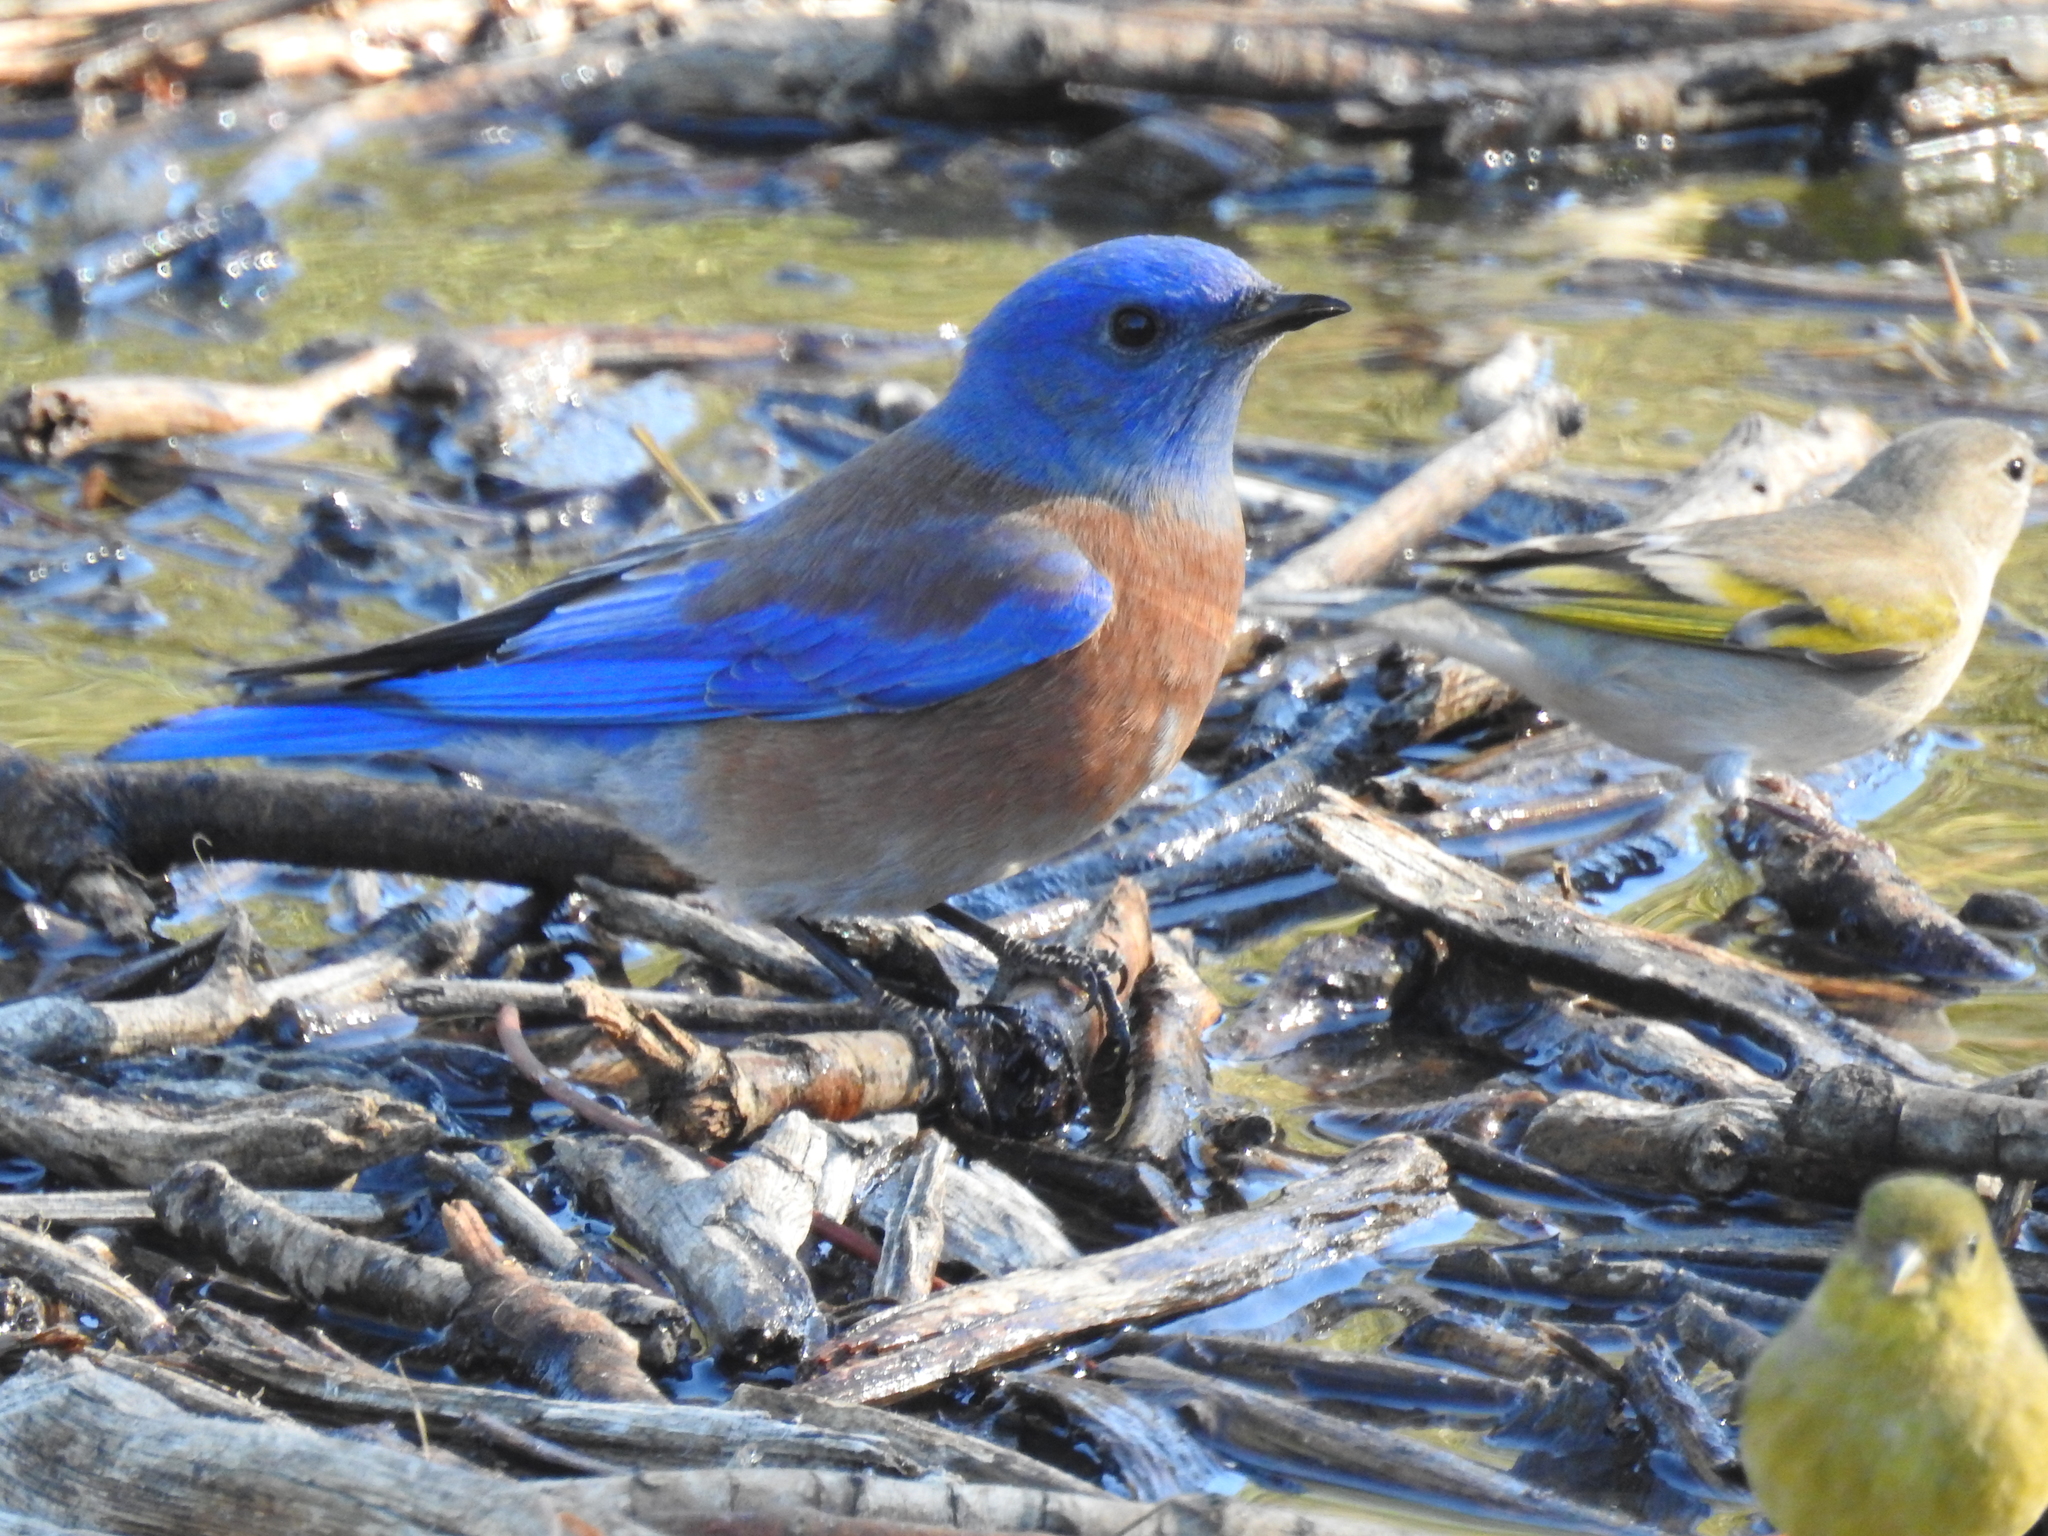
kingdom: Animalia
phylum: Chordata
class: Aves
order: Passeriformes
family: Turdidae
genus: Sialia
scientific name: Sialia mexicana
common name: Western bluebird
